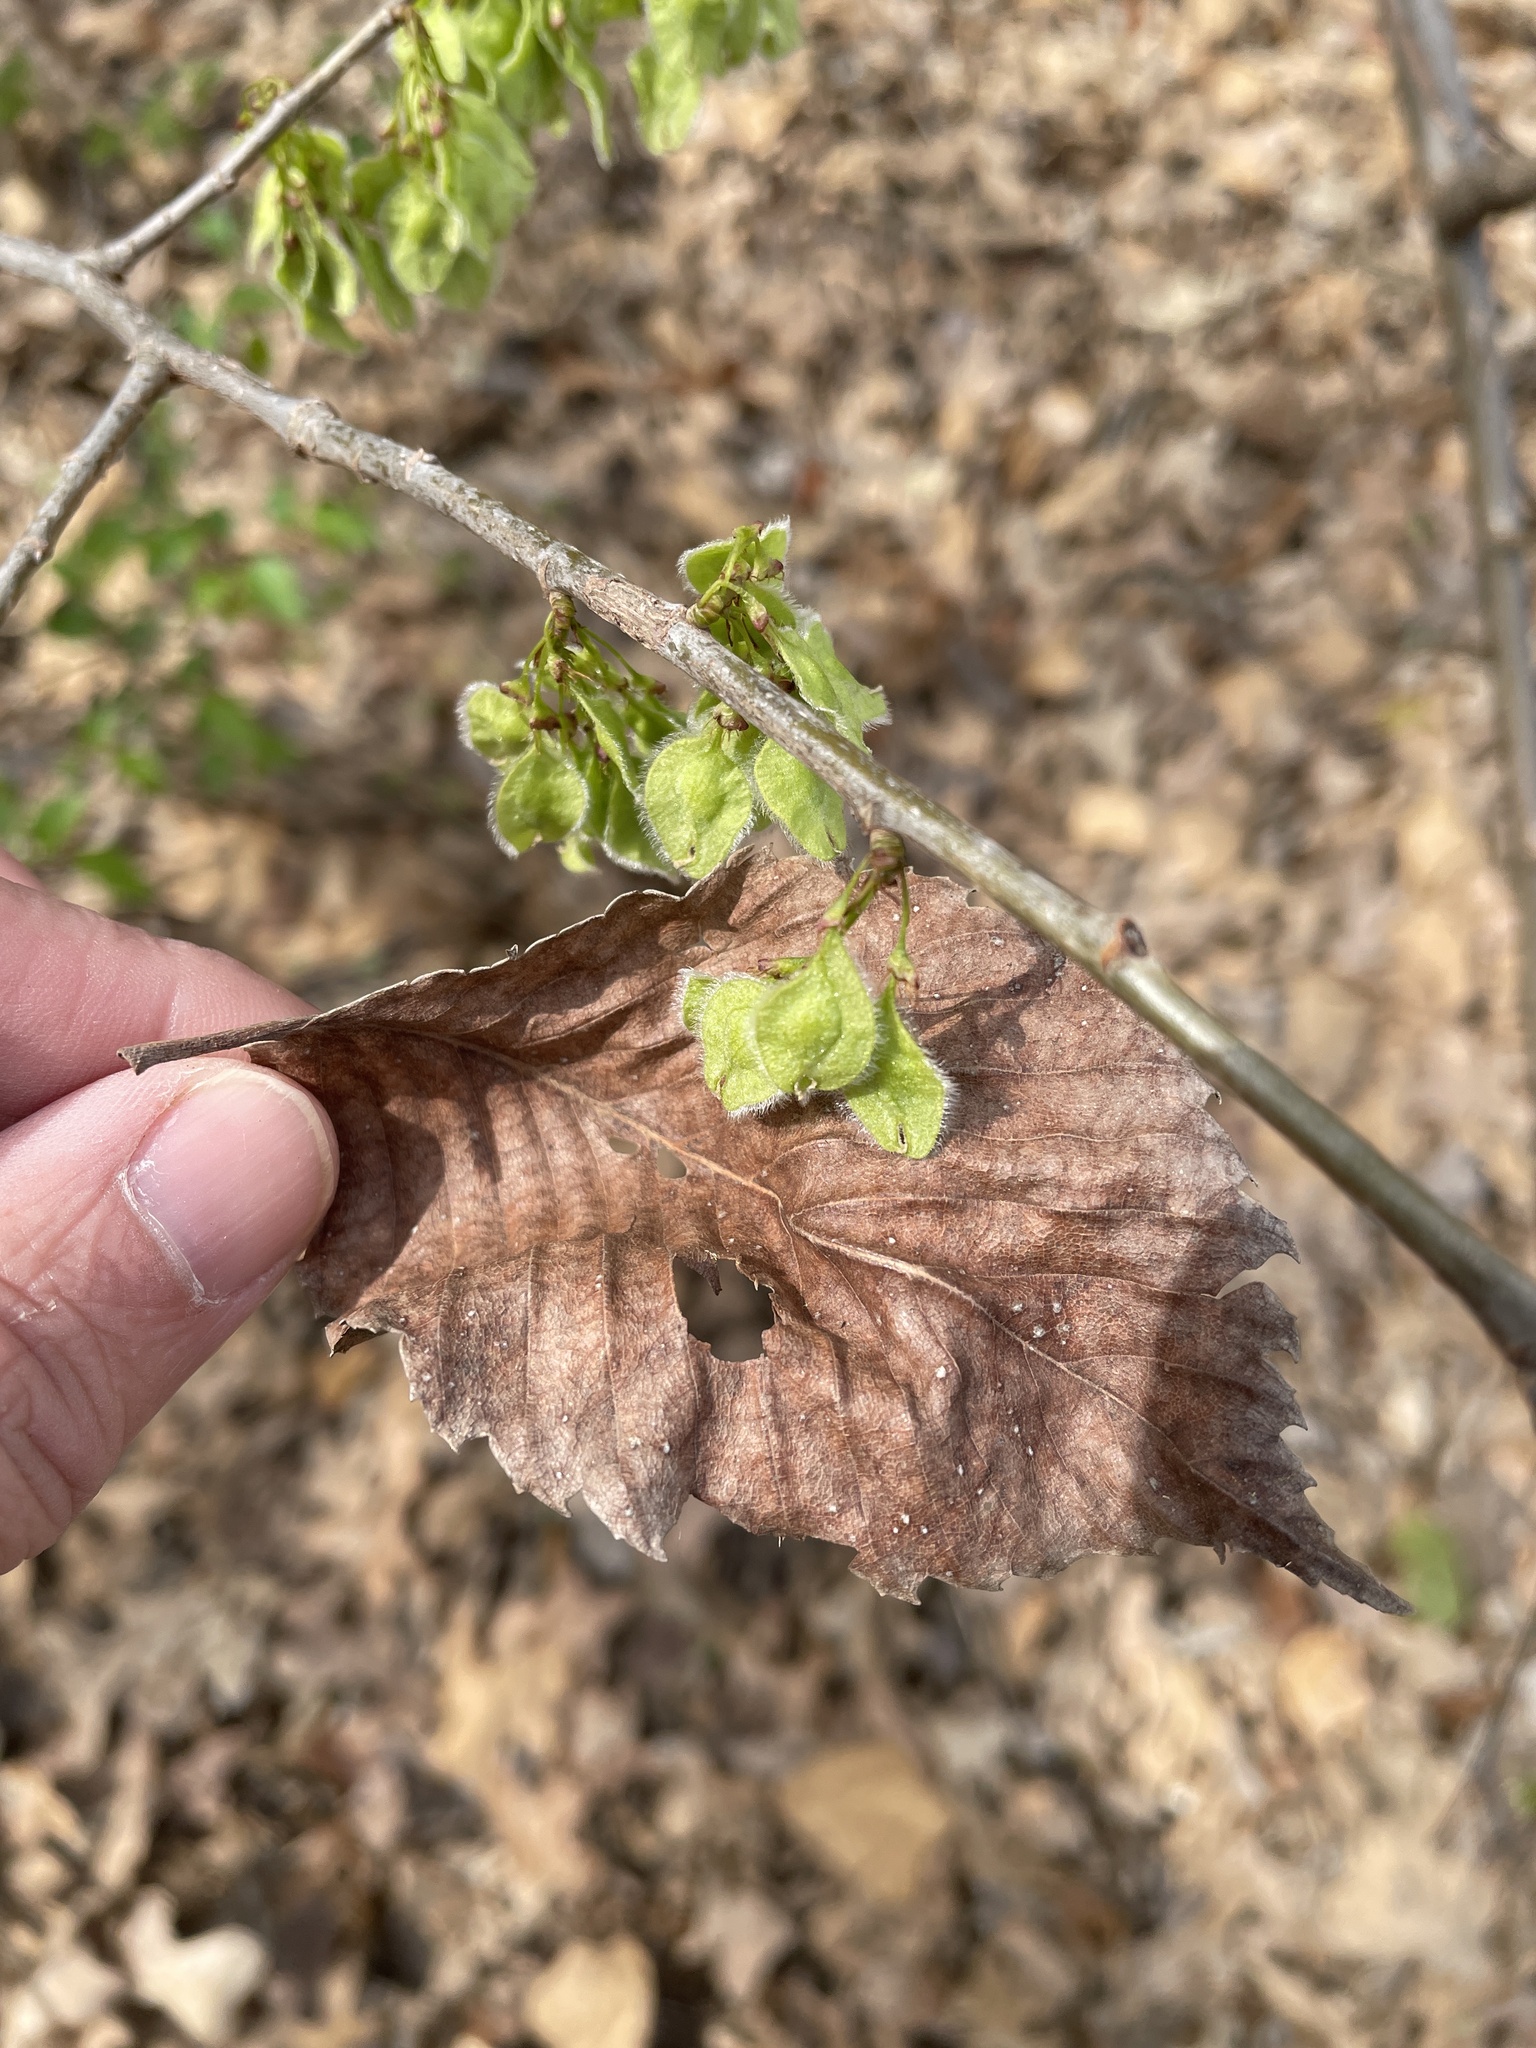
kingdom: Plantae
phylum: Tracheophyta
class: Magnoliopsida
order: Rosales
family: Ulmaceae
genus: Ulmus
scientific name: Ulmus americana
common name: American elm
